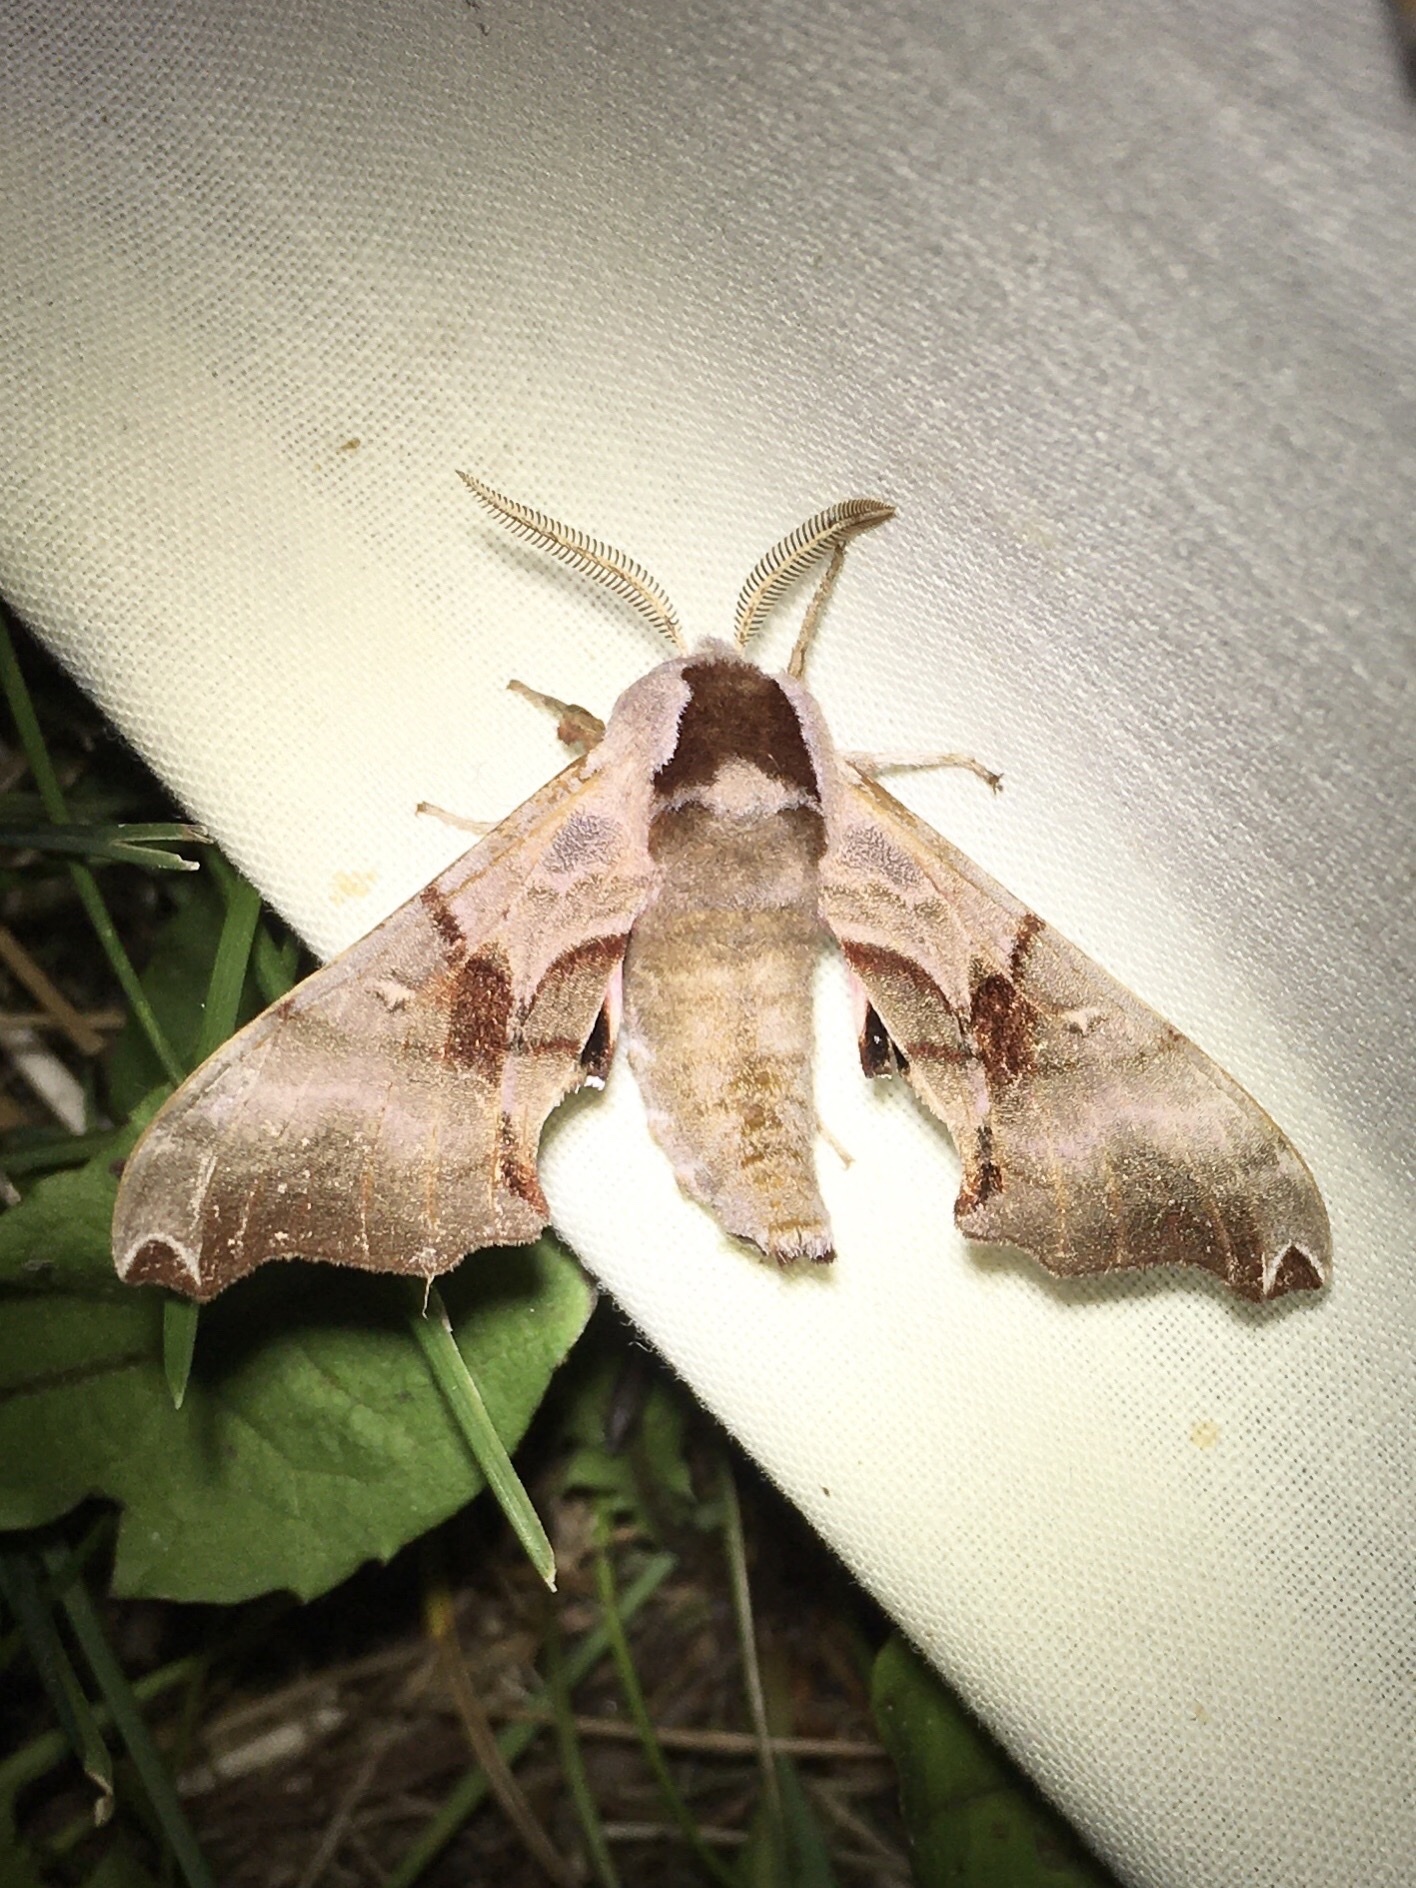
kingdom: Animalia
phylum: Arthropoda
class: Insecta
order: Lepidoptera
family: Sphingidae
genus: Smerinthus
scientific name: Smerinthus jamaicensis
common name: Twin spotted sphinx
